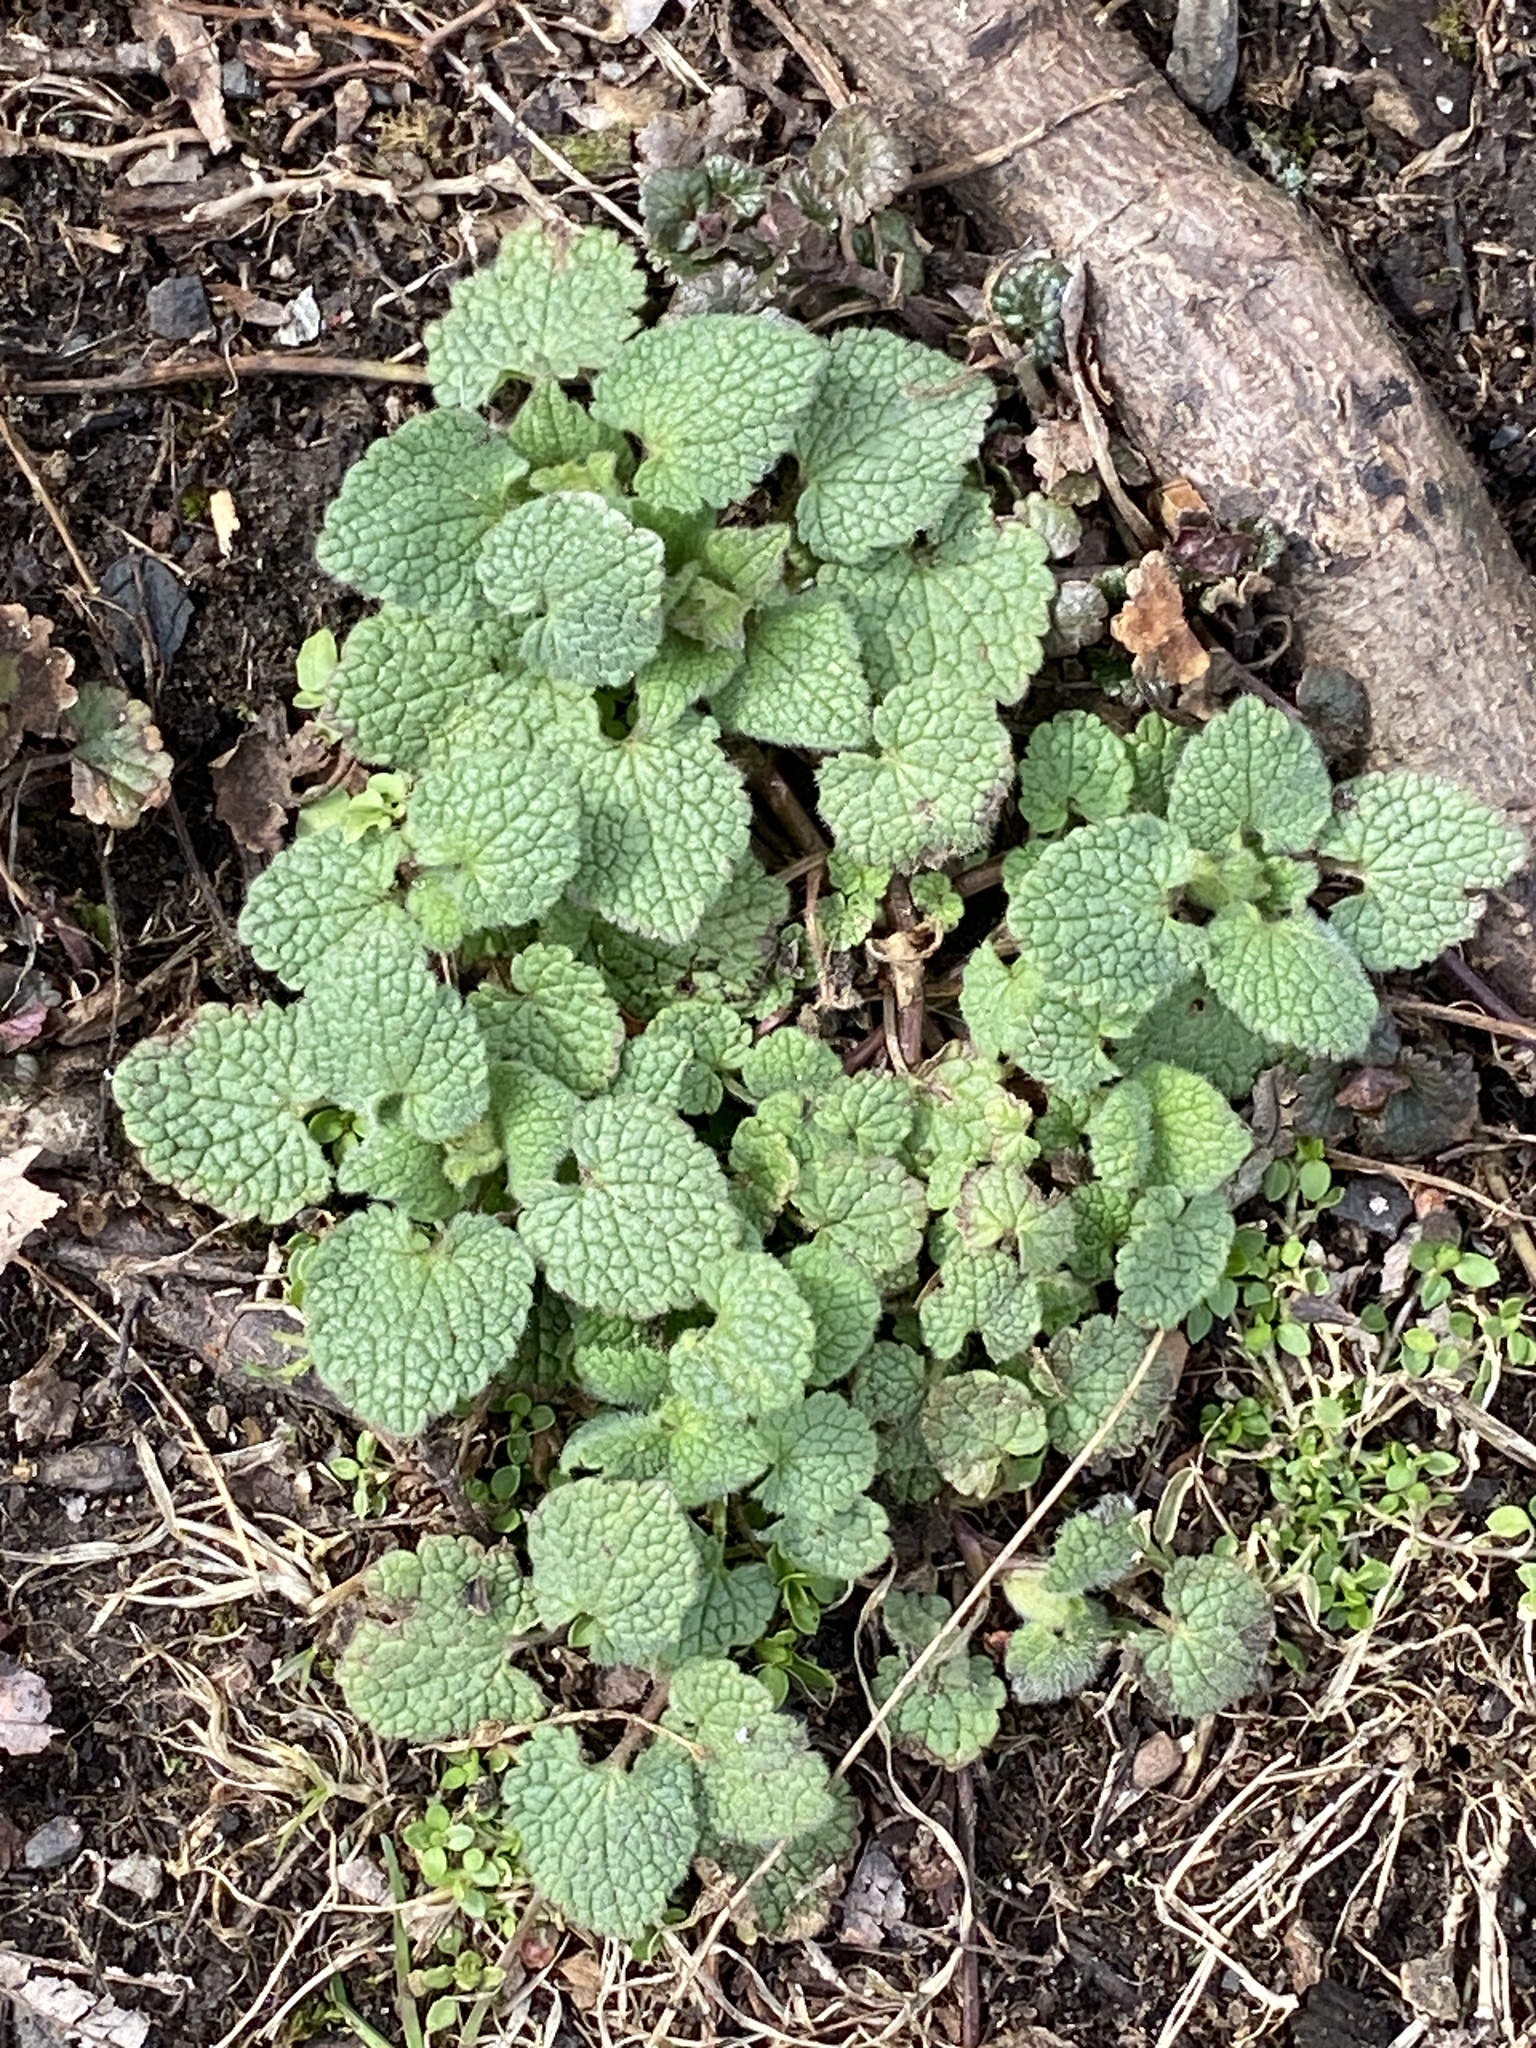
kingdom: Plantae
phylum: Tracheophyta
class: Magnoliopsida
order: Lamiales
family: Lamiaceae
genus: Lamium
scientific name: Lamium purpureum
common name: Red dead-nettle
